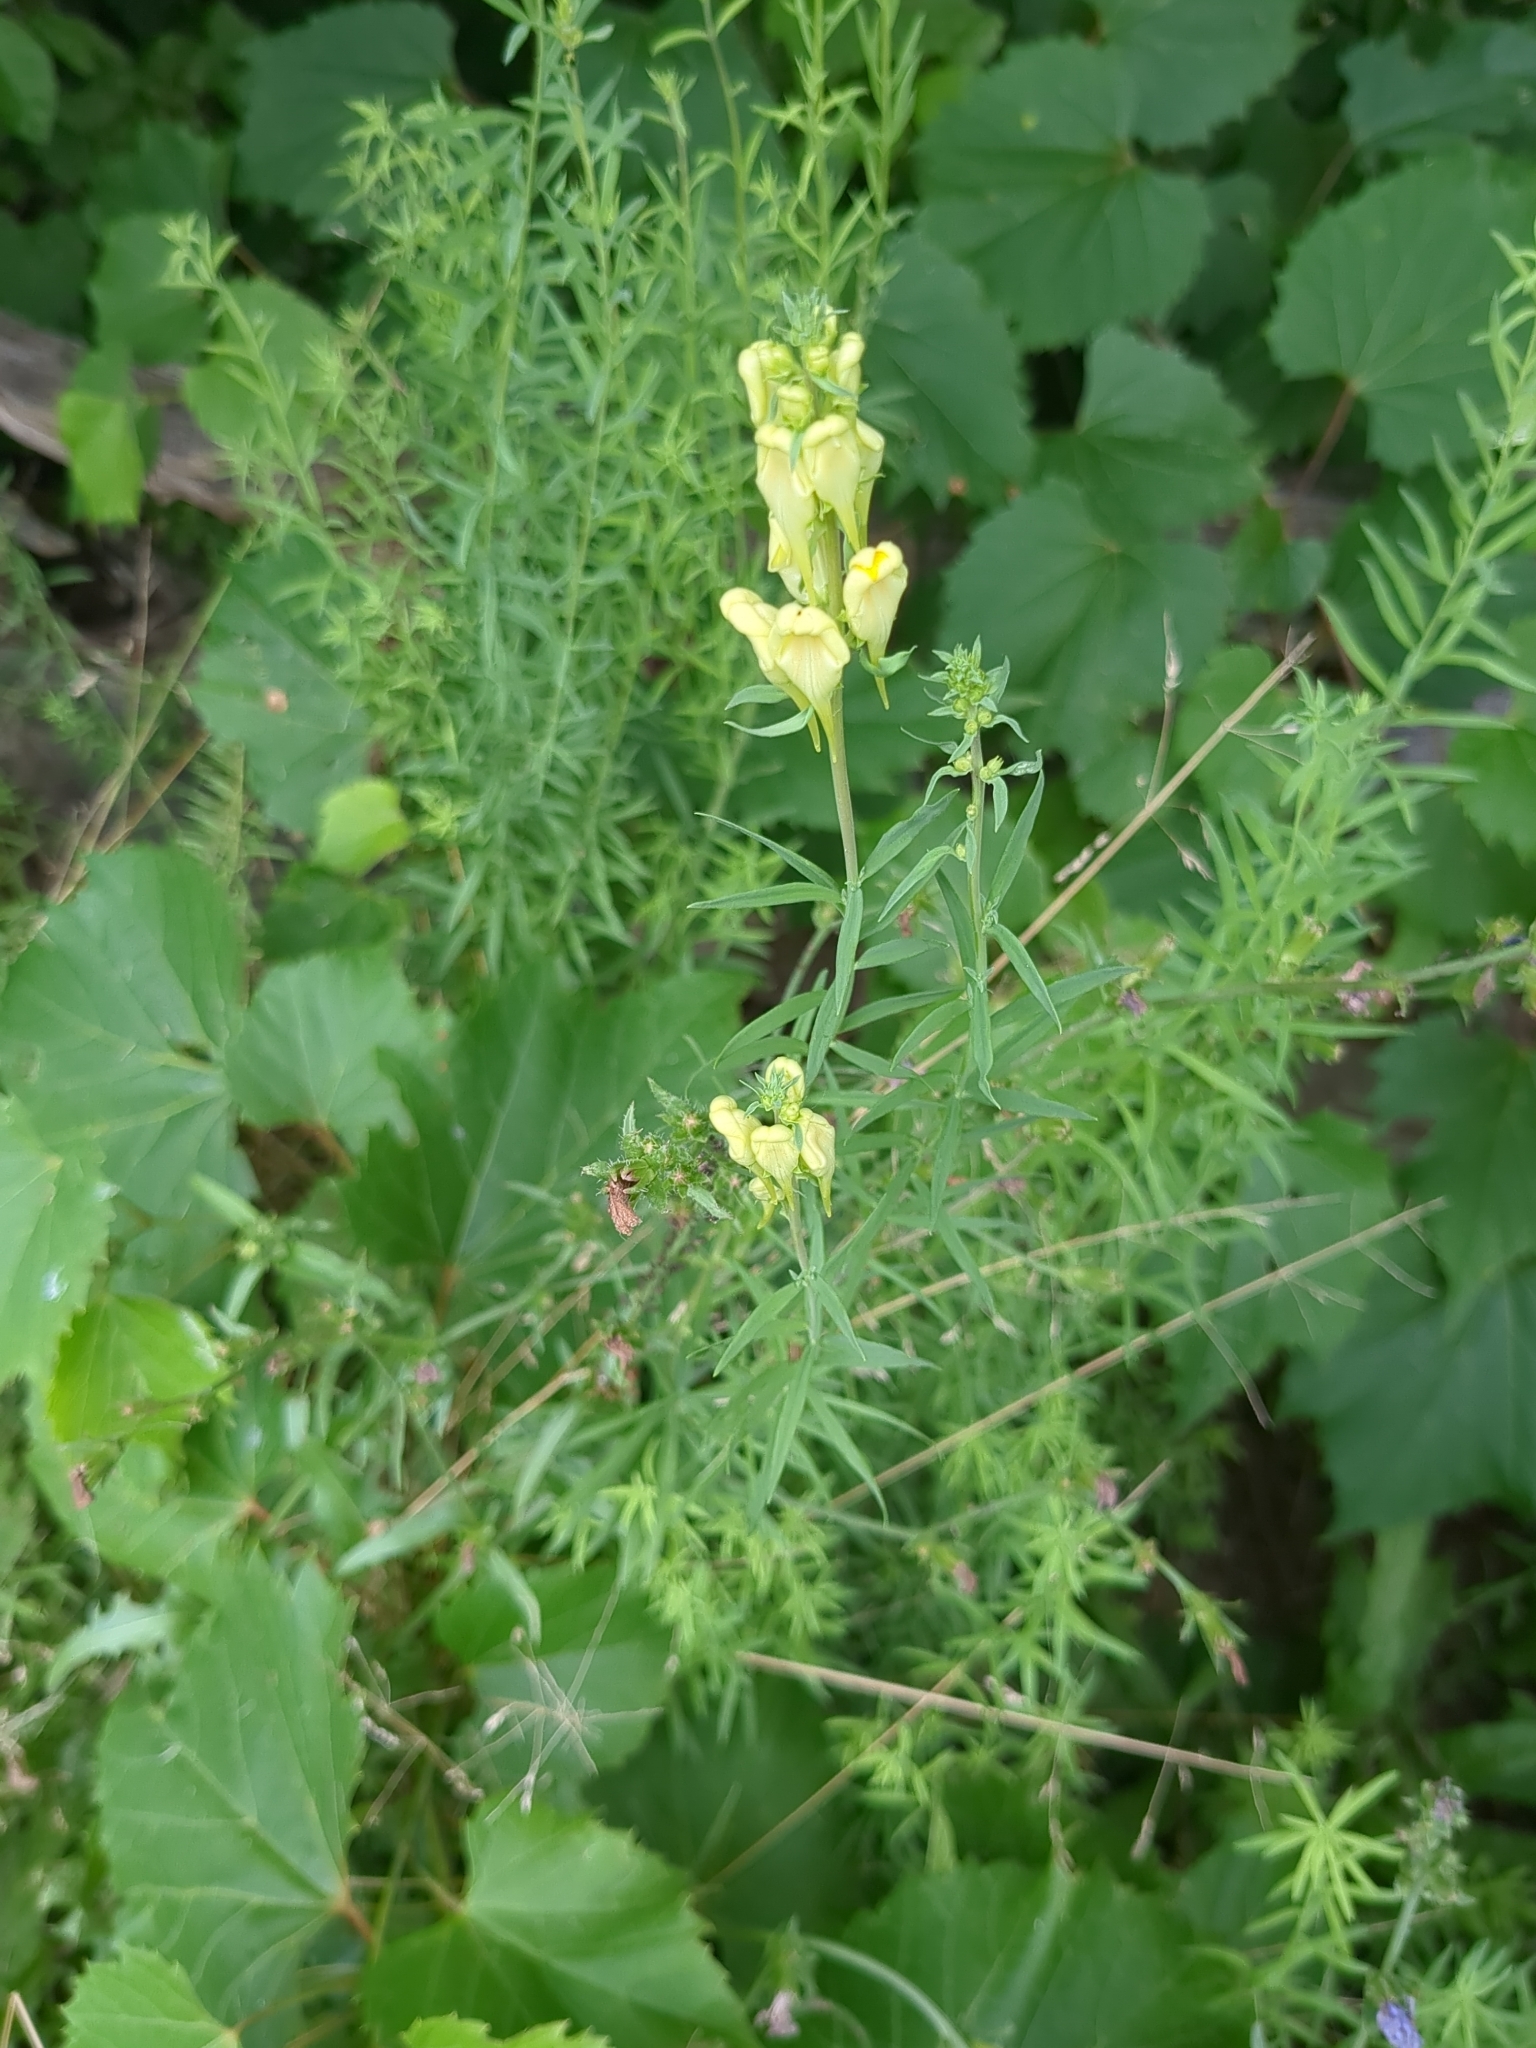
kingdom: Plantae
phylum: Tracheophyta
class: Magnoliopsida
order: Lamiales
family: Plantaginaceae
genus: Linaria
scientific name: Linaria vulgaris
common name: Butter and eggs
